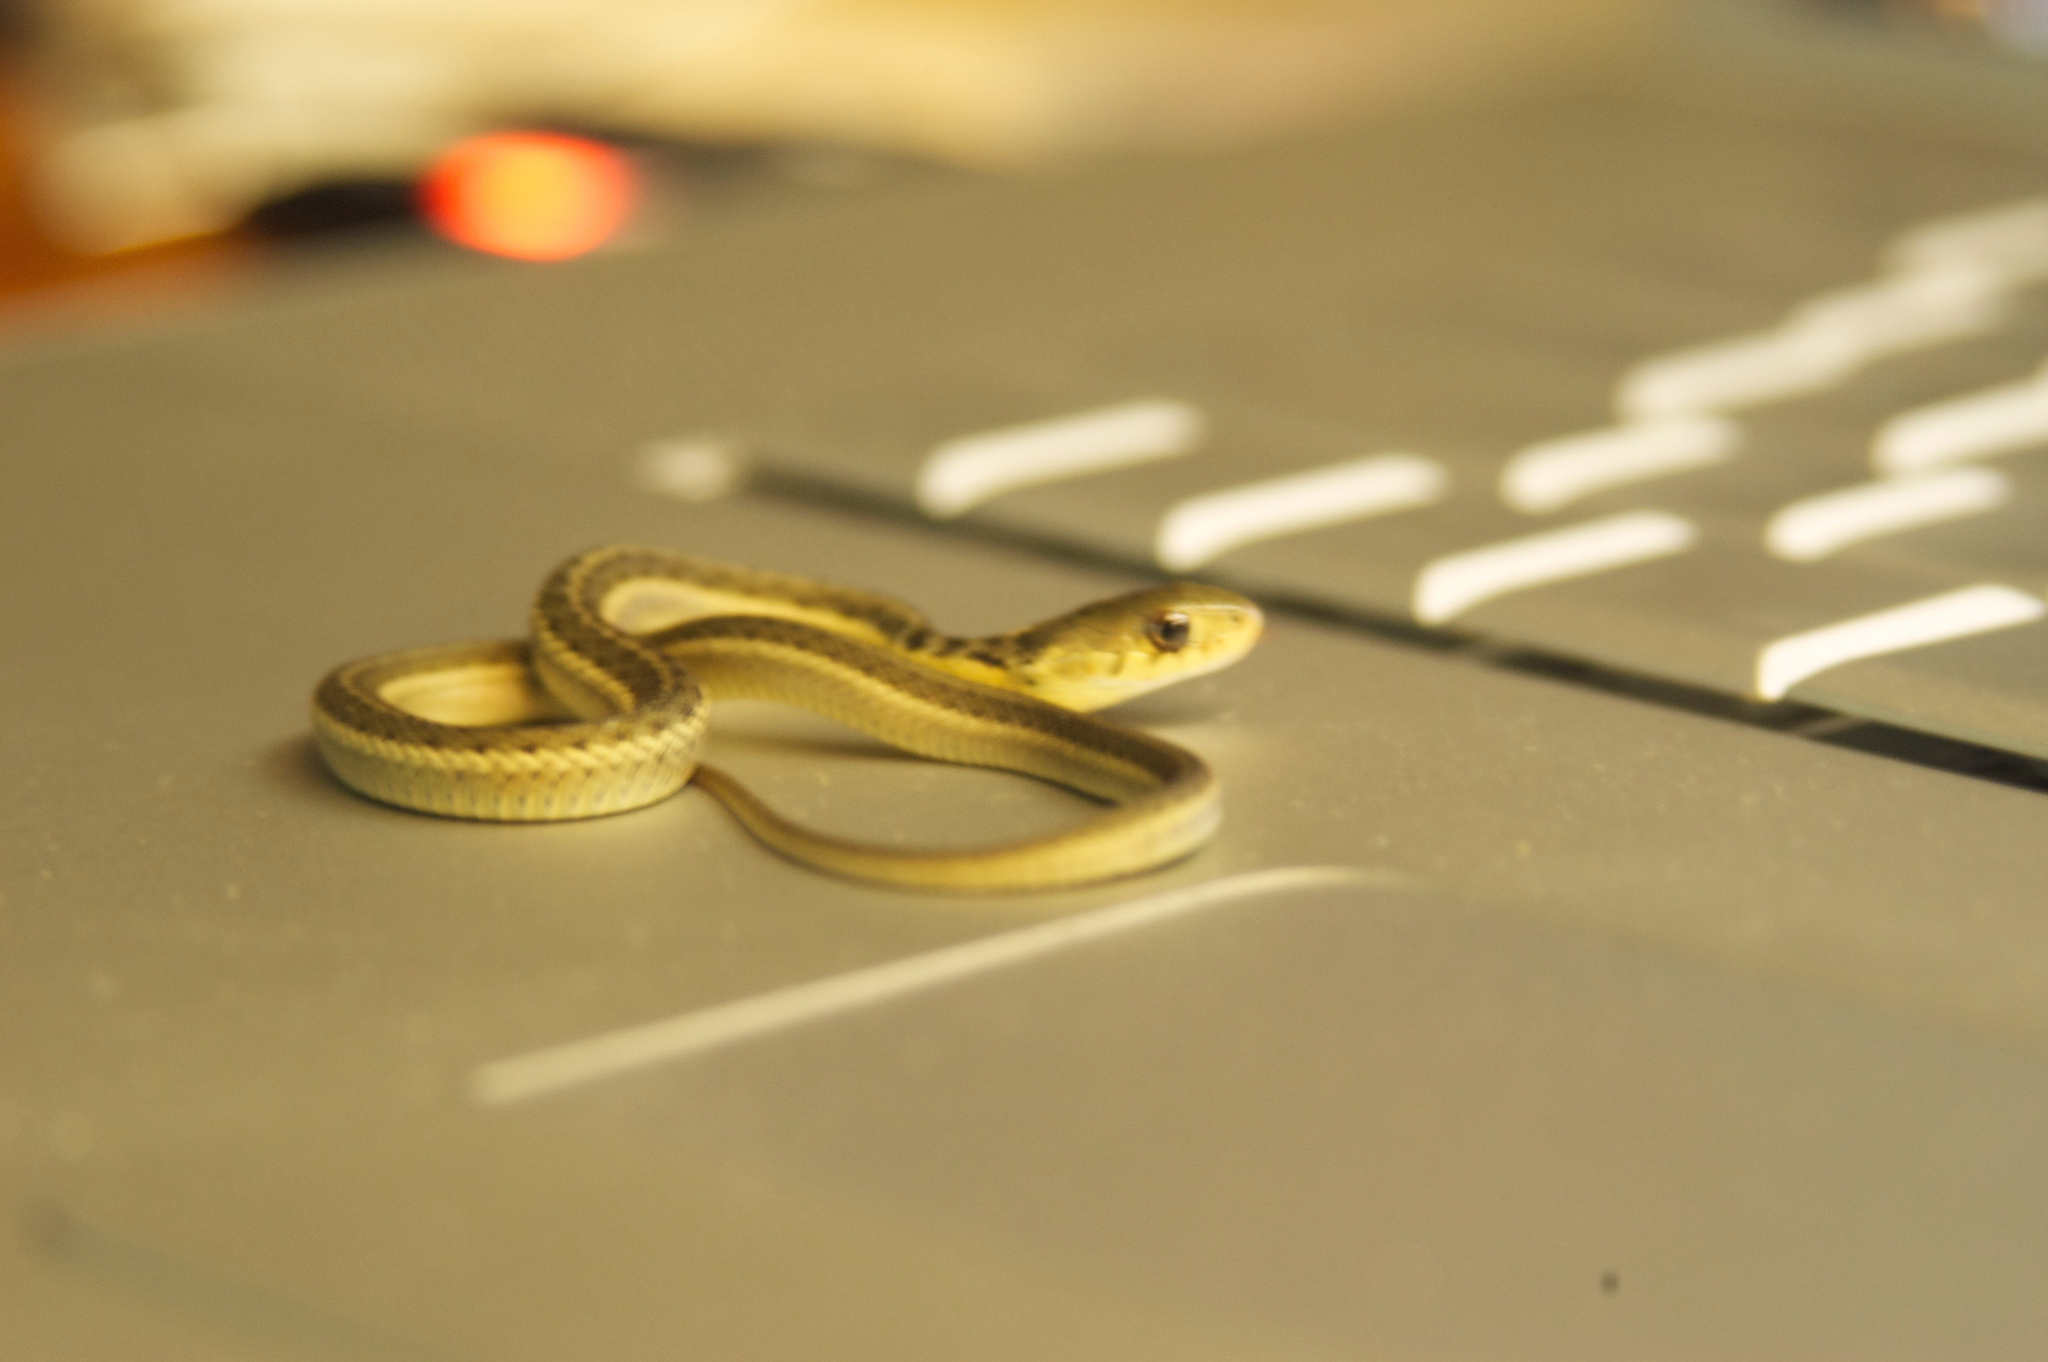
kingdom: Animalia
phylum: Chordata
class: Squamata
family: Colubridae
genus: Thamnophis
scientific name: Thamnophis sirtalis
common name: Common garter snake
